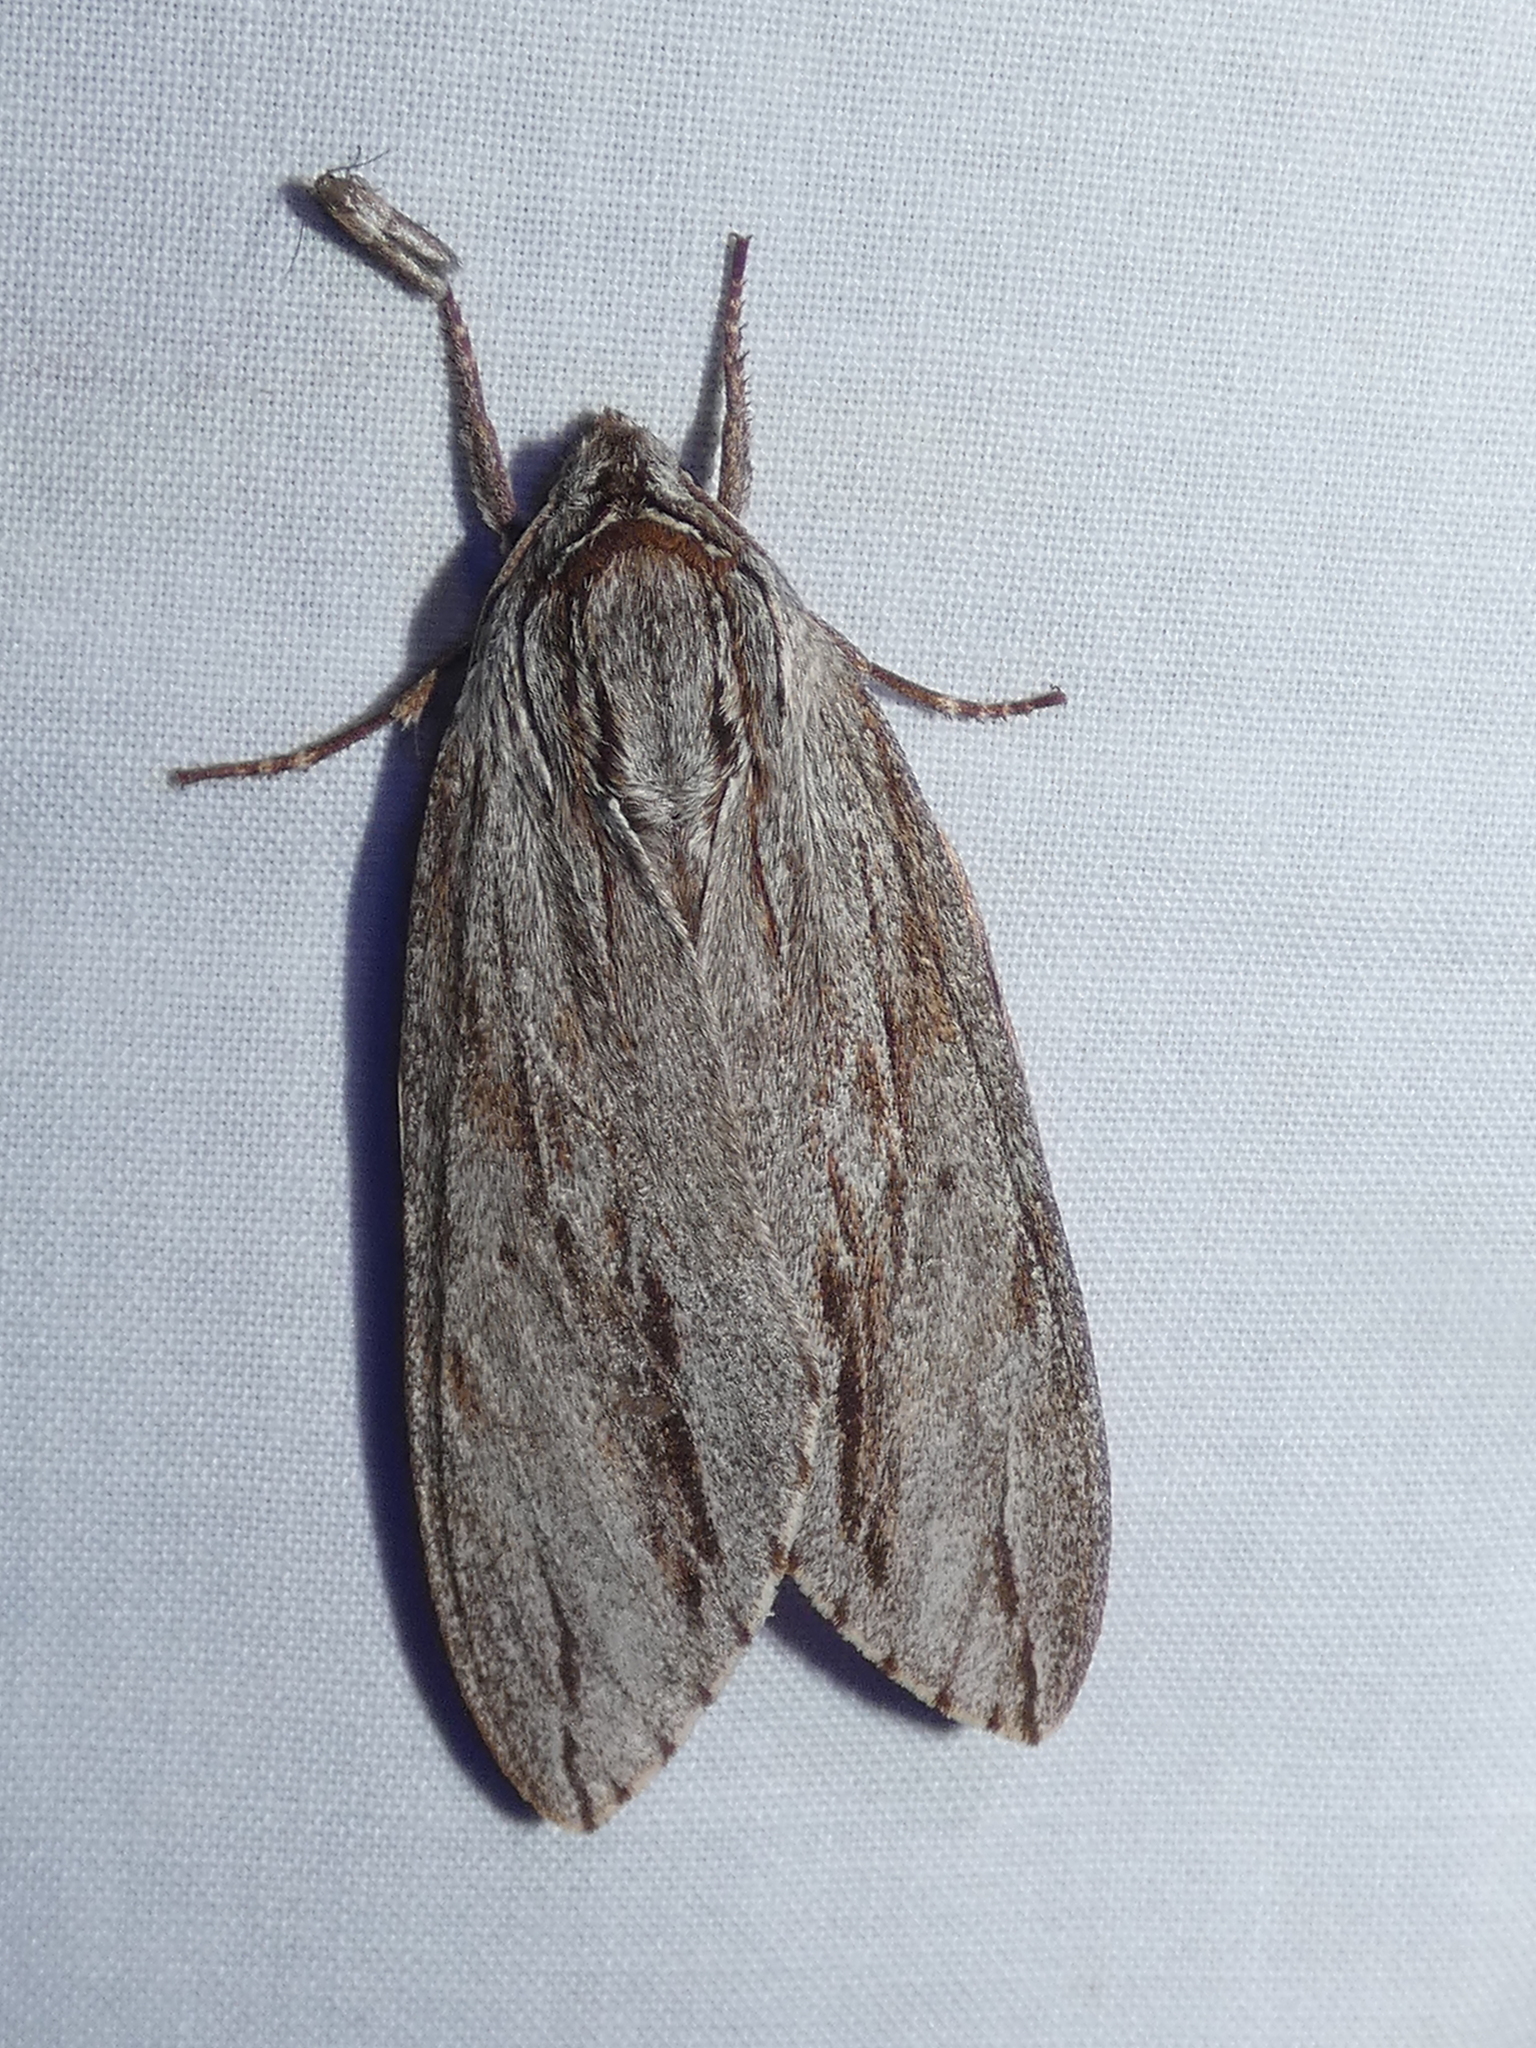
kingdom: Animalia
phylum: Arthropoda
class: Insecta
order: Lepidoptera
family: Sphingidae
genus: Isoparce
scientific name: Isoparce cupressi
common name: Cypress sphinx
